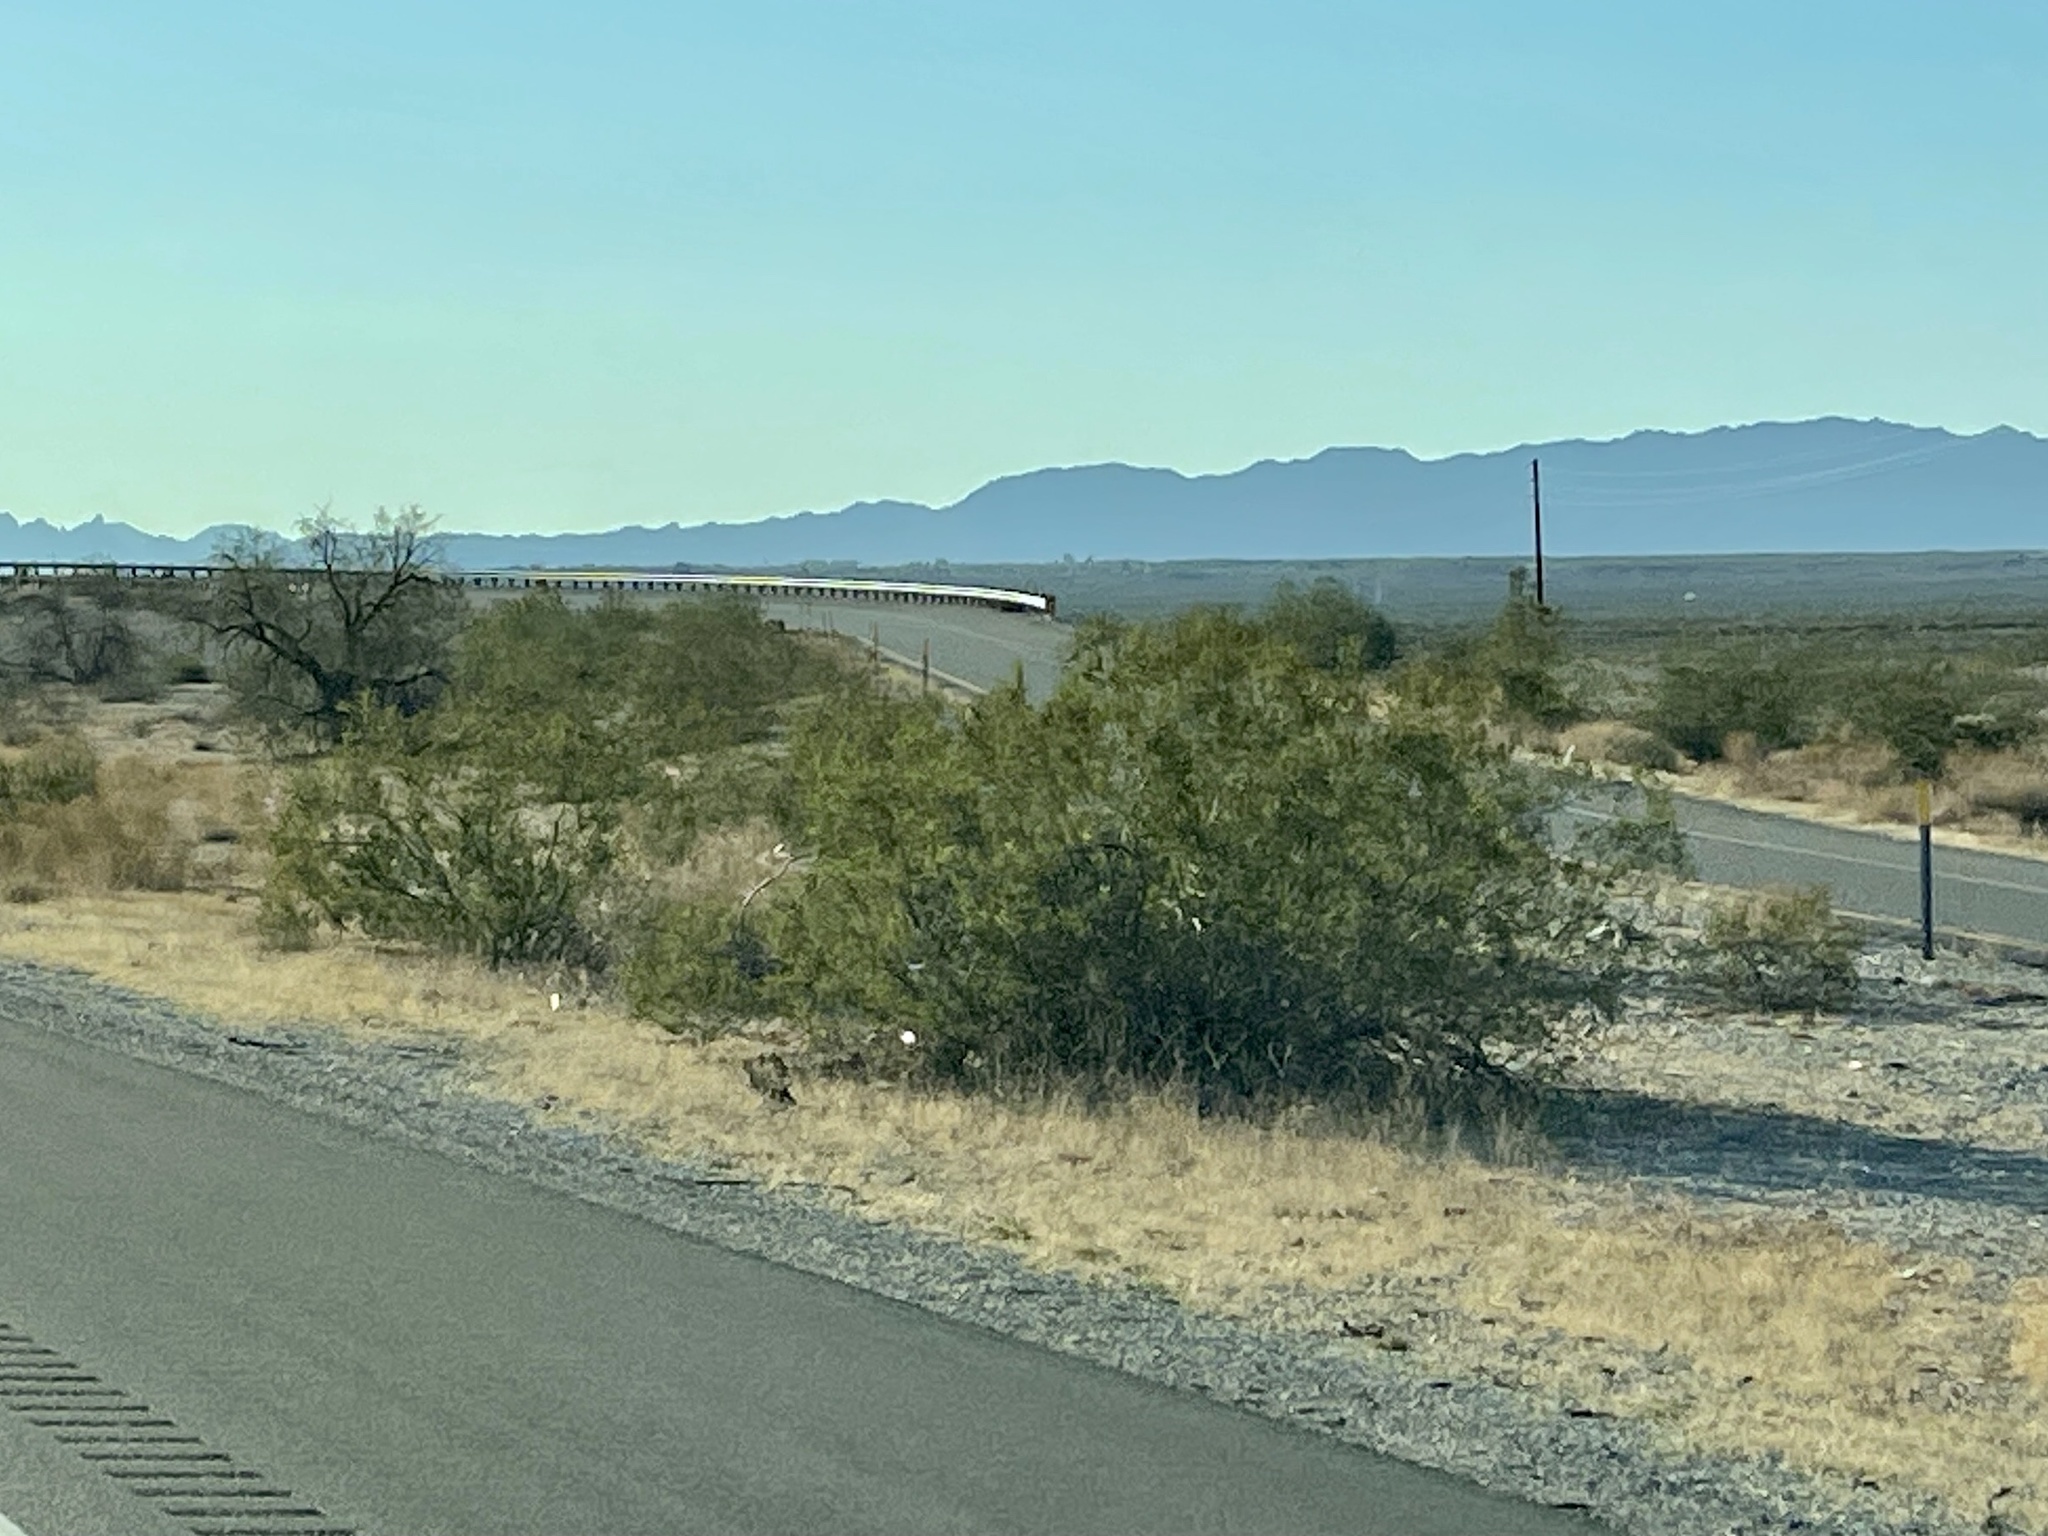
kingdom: Plantae
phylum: Tracheophyta
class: Magnoliopsida
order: Zygophyllales
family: Zygophyllaceae
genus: Larrea
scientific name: Larrea tridentata
